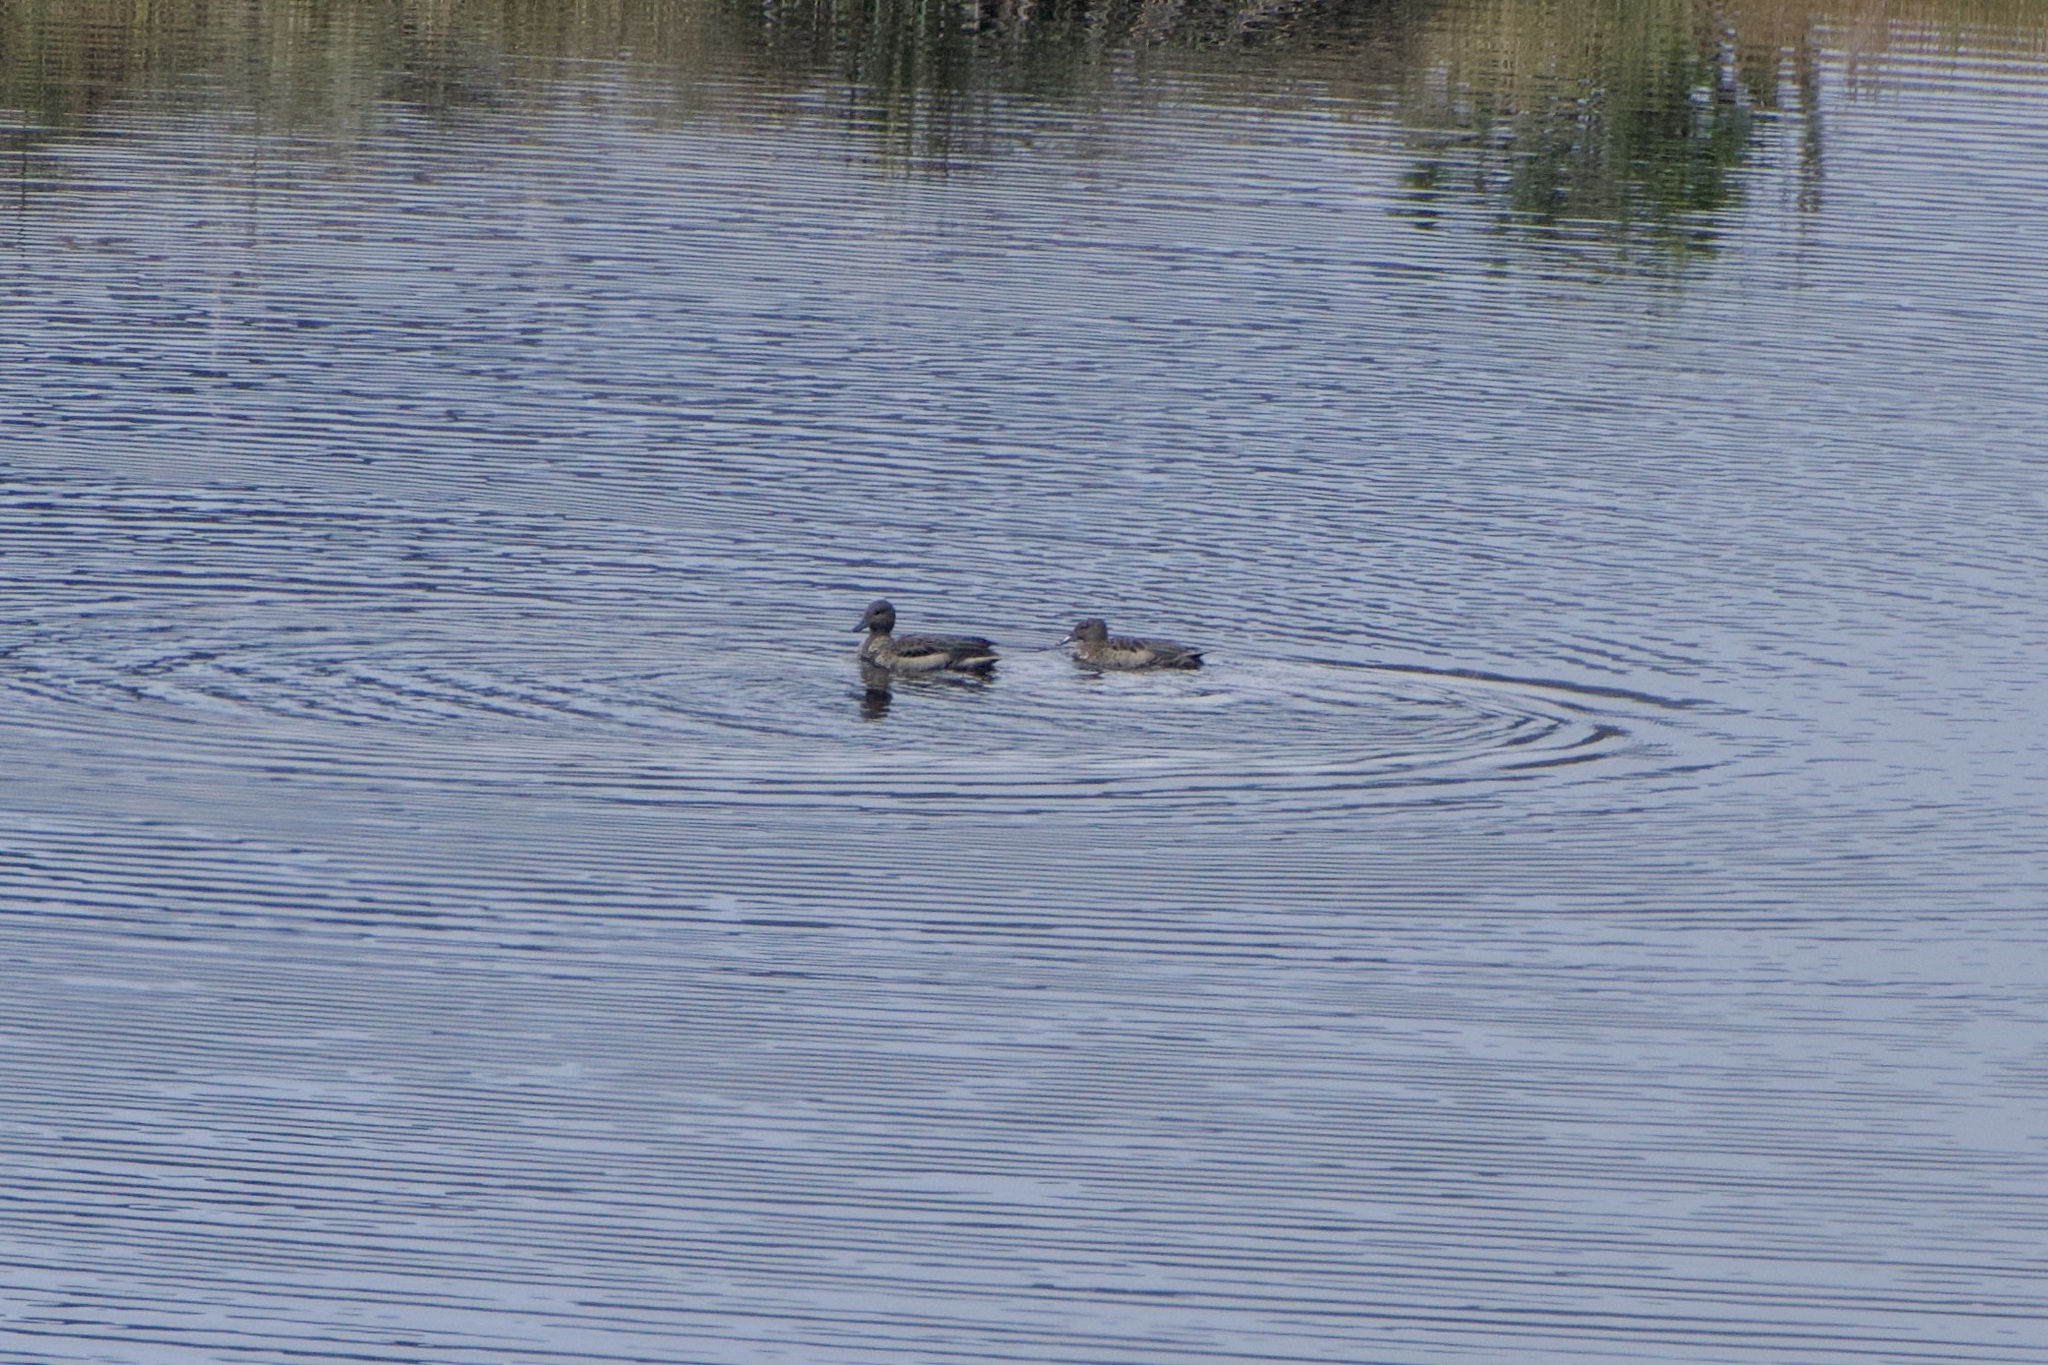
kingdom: Animalia
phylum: Chordata
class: Aves
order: Anseriformes
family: Anatidae
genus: Anas
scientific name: Anas andium
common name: Andean teal
